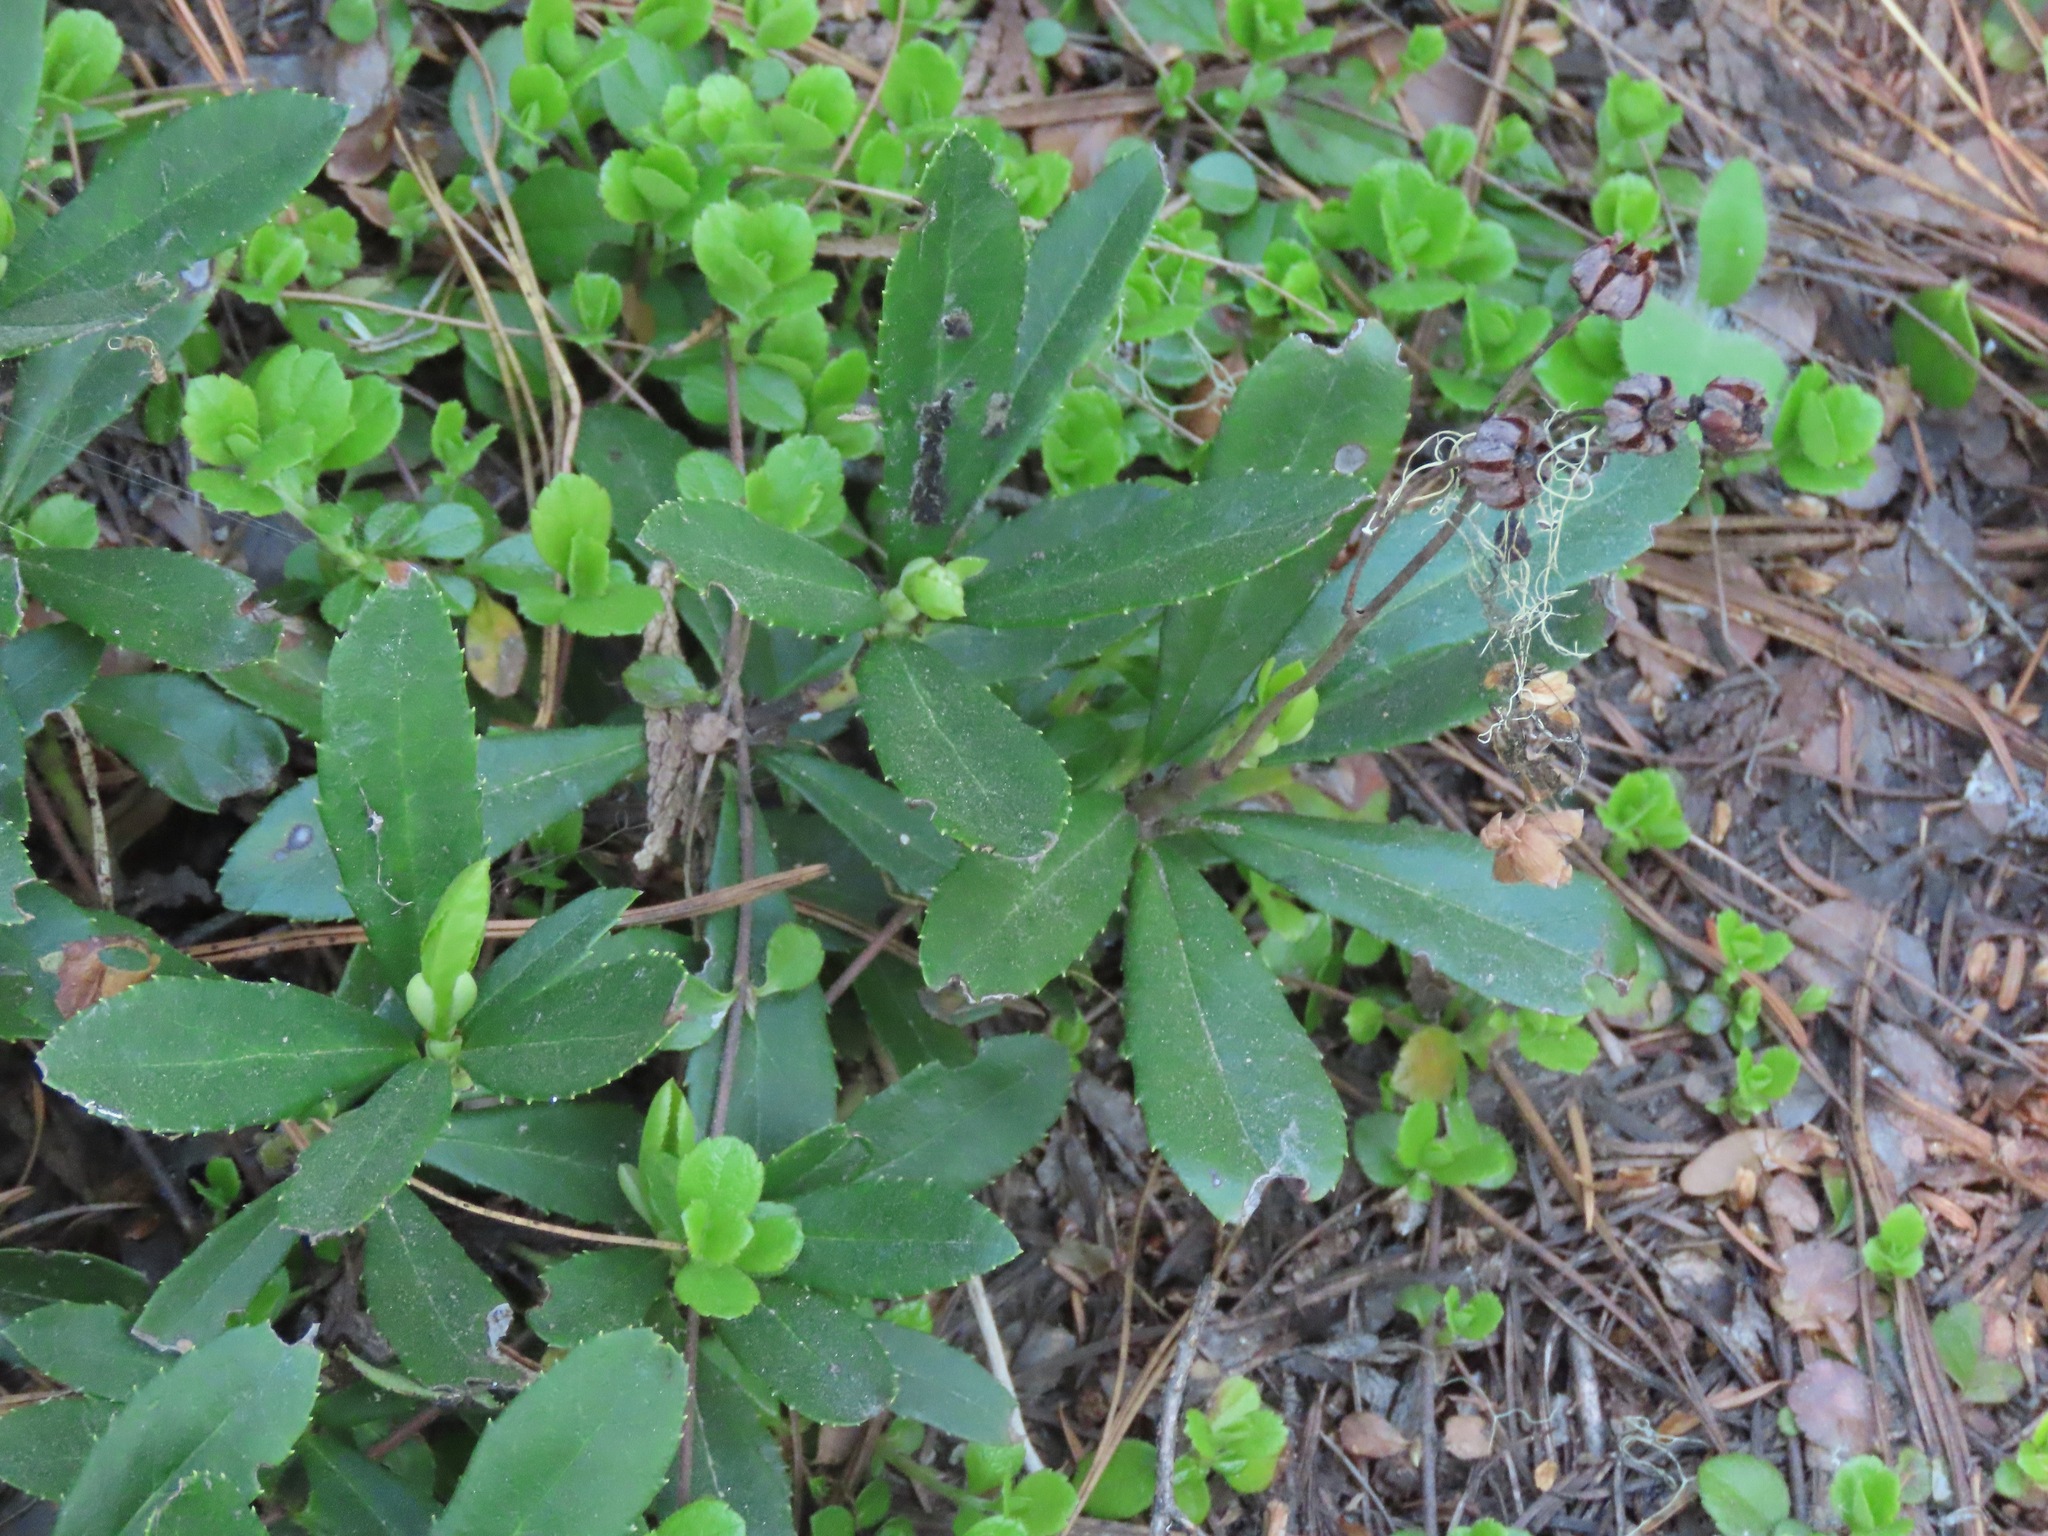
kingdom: Plantae
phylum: Tracheophyta
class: Magnoliopsida
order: Ericales
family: Ericaceae
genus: Chimaphila
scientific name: Chimaphila umbellata
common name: Pipsissewa
